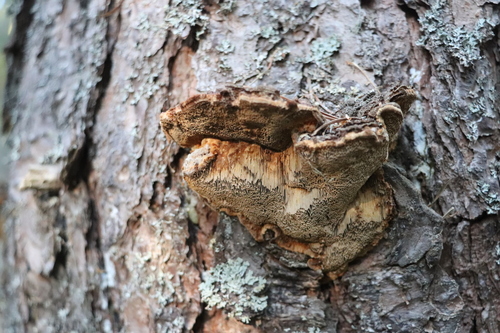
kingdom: Fungi
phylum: Basidiomycota
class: Agaricomycetes
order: Hymenochaetales
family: Hymenochaetaceae
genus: Porodaedalea
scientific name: Porodaedalea pini
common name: Pine bracket
